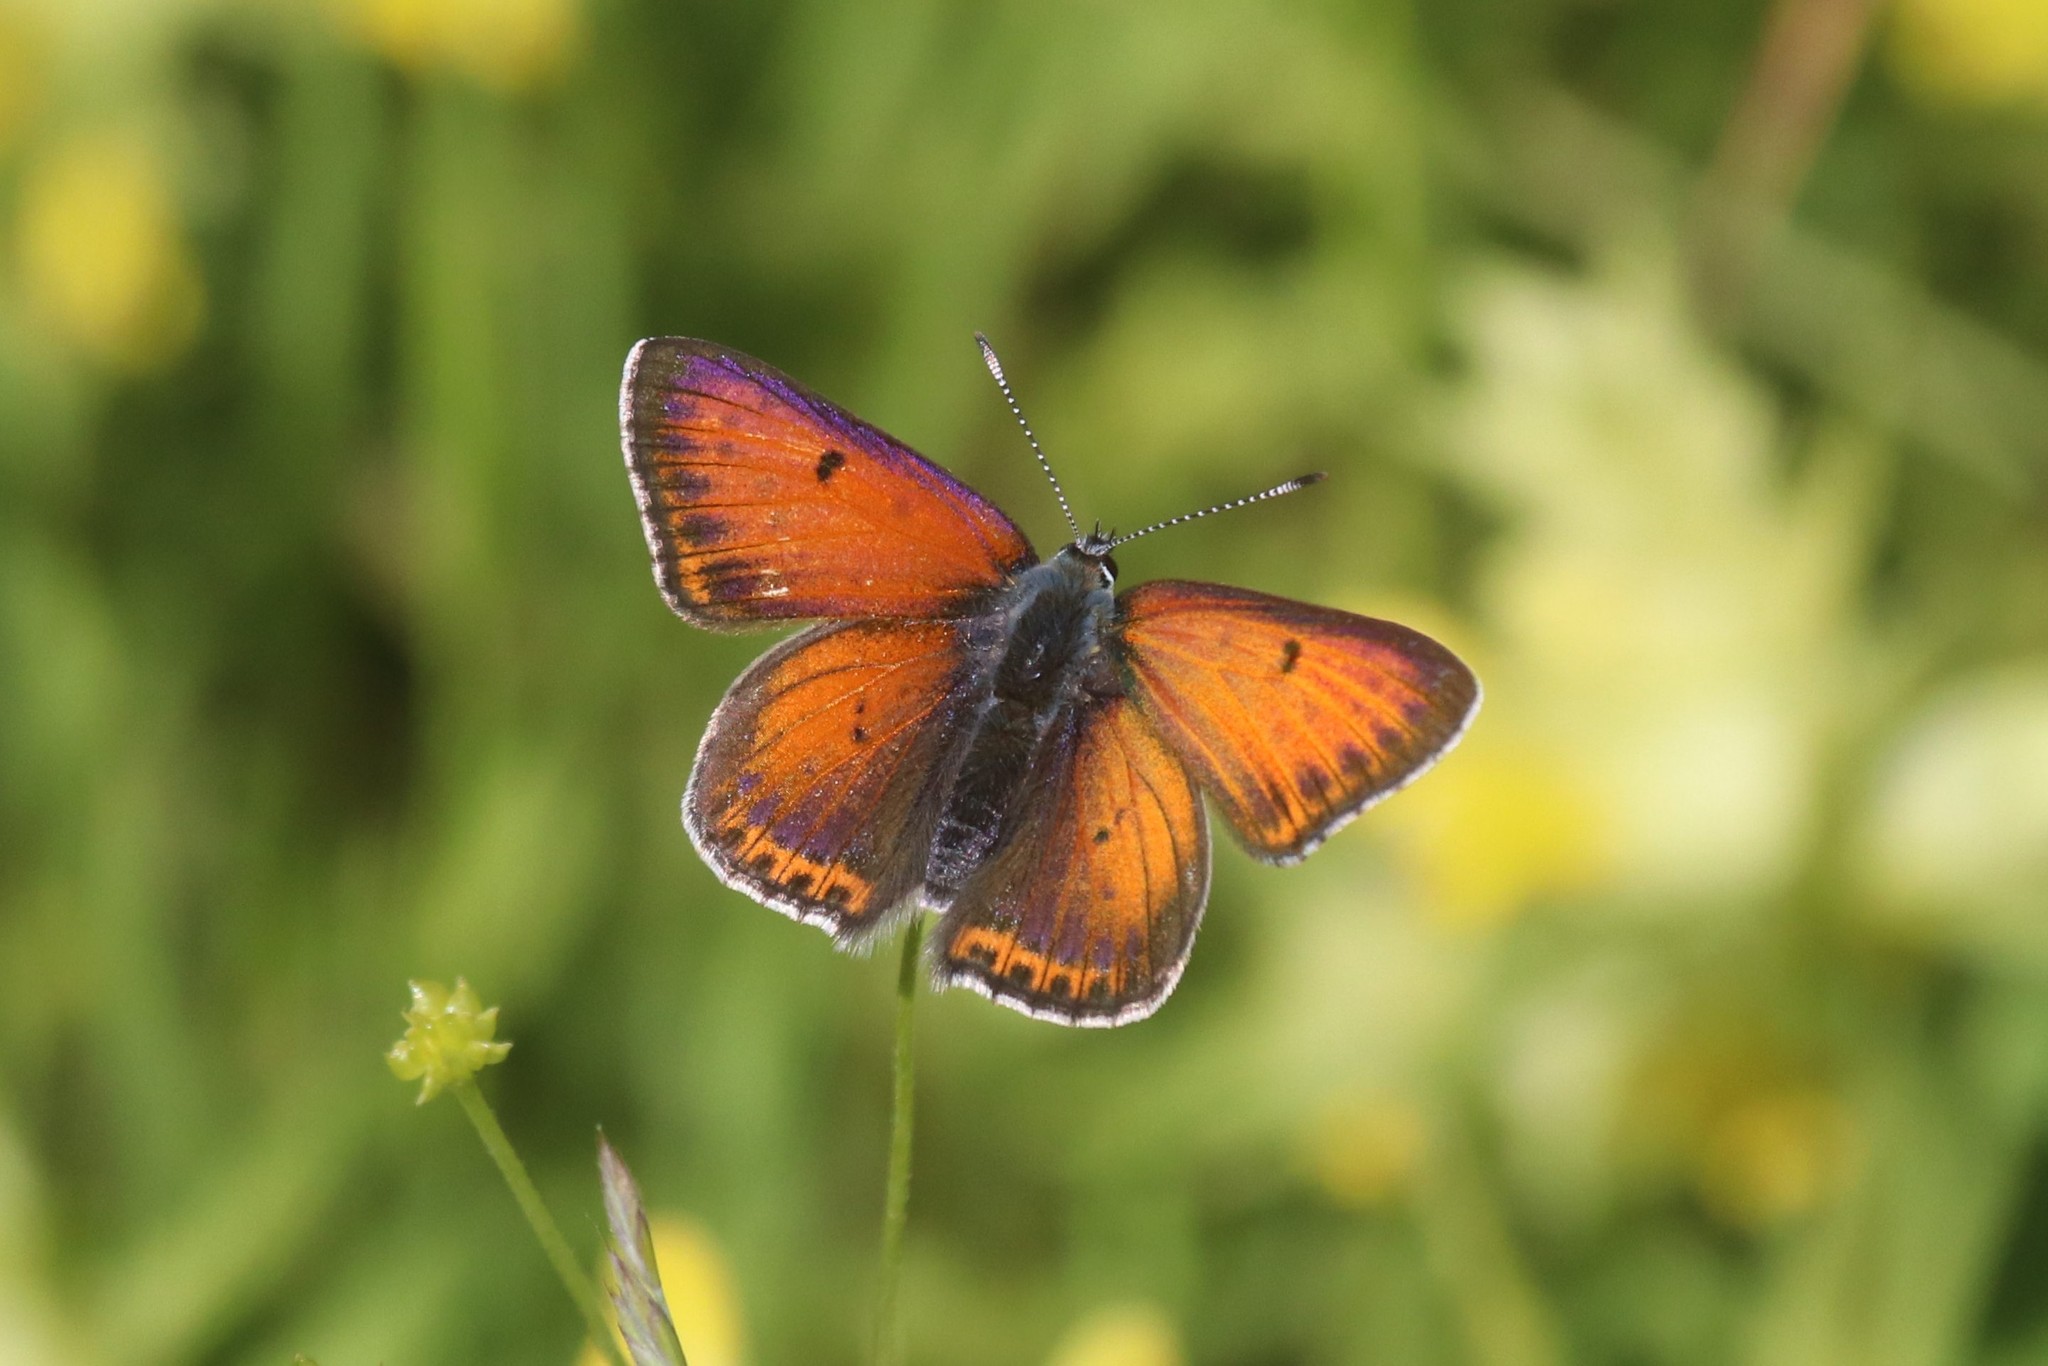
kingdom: Animalia
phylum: Arthropoda
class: Insecta
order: Lepidoptera
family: Lycaenidae
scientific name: Lycaenidae
